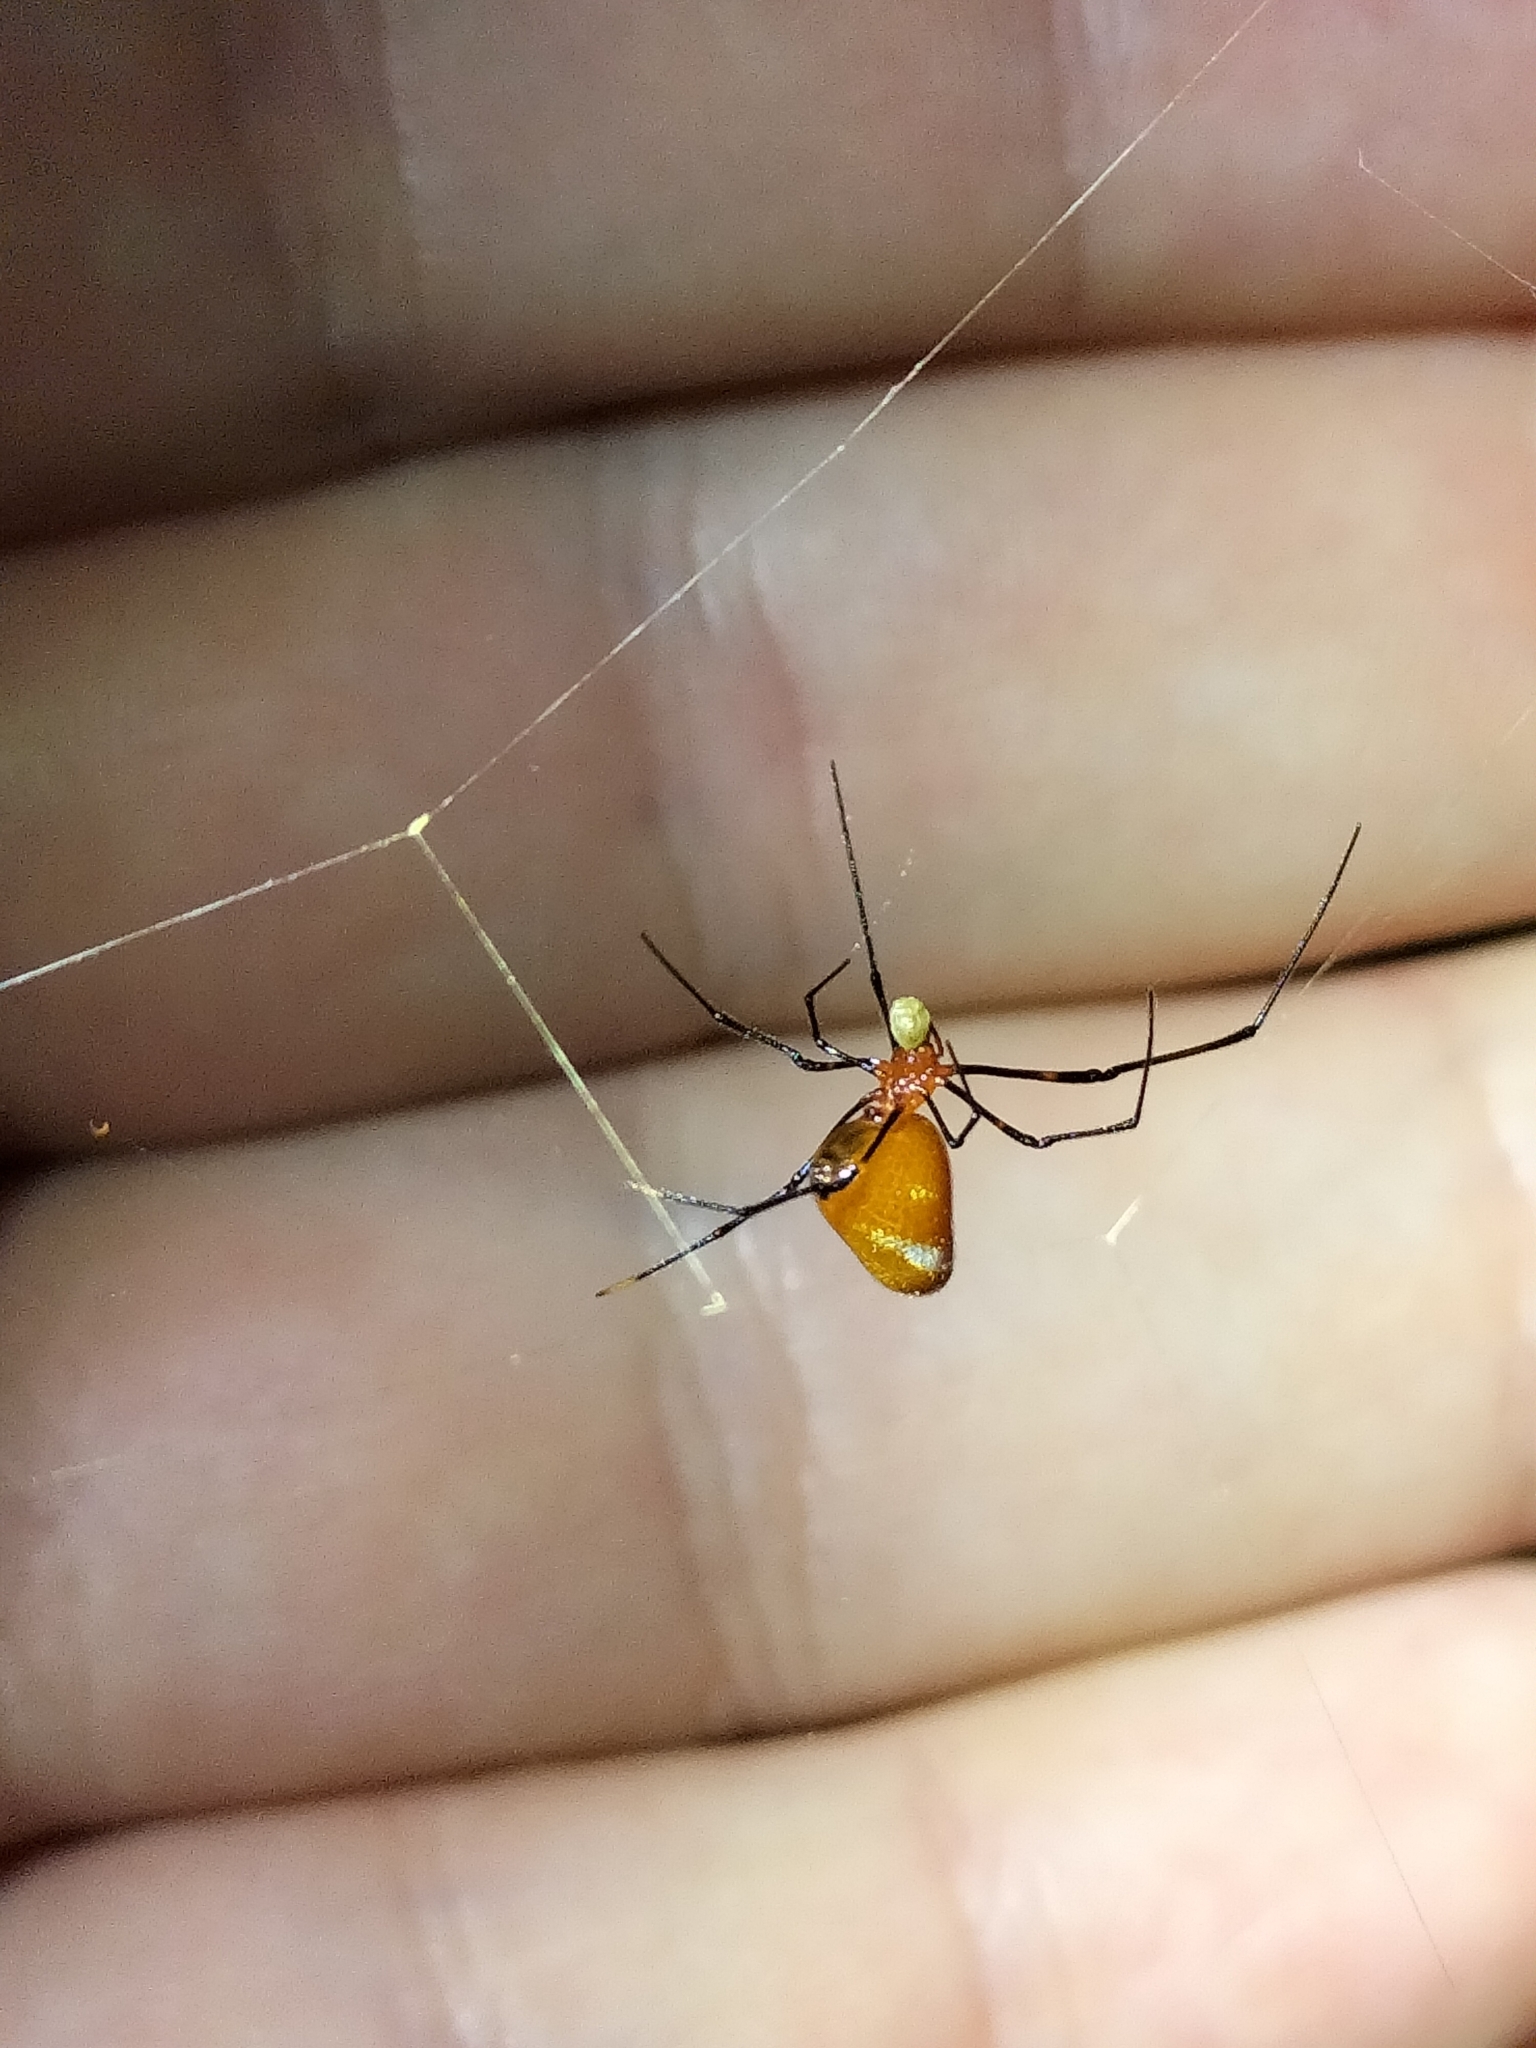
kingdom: Animalia
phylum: Arthropoda
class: Arachnida
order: Araneae
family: Theridiidae
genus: Argyrodes
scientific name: Argyrodes miniaceus
